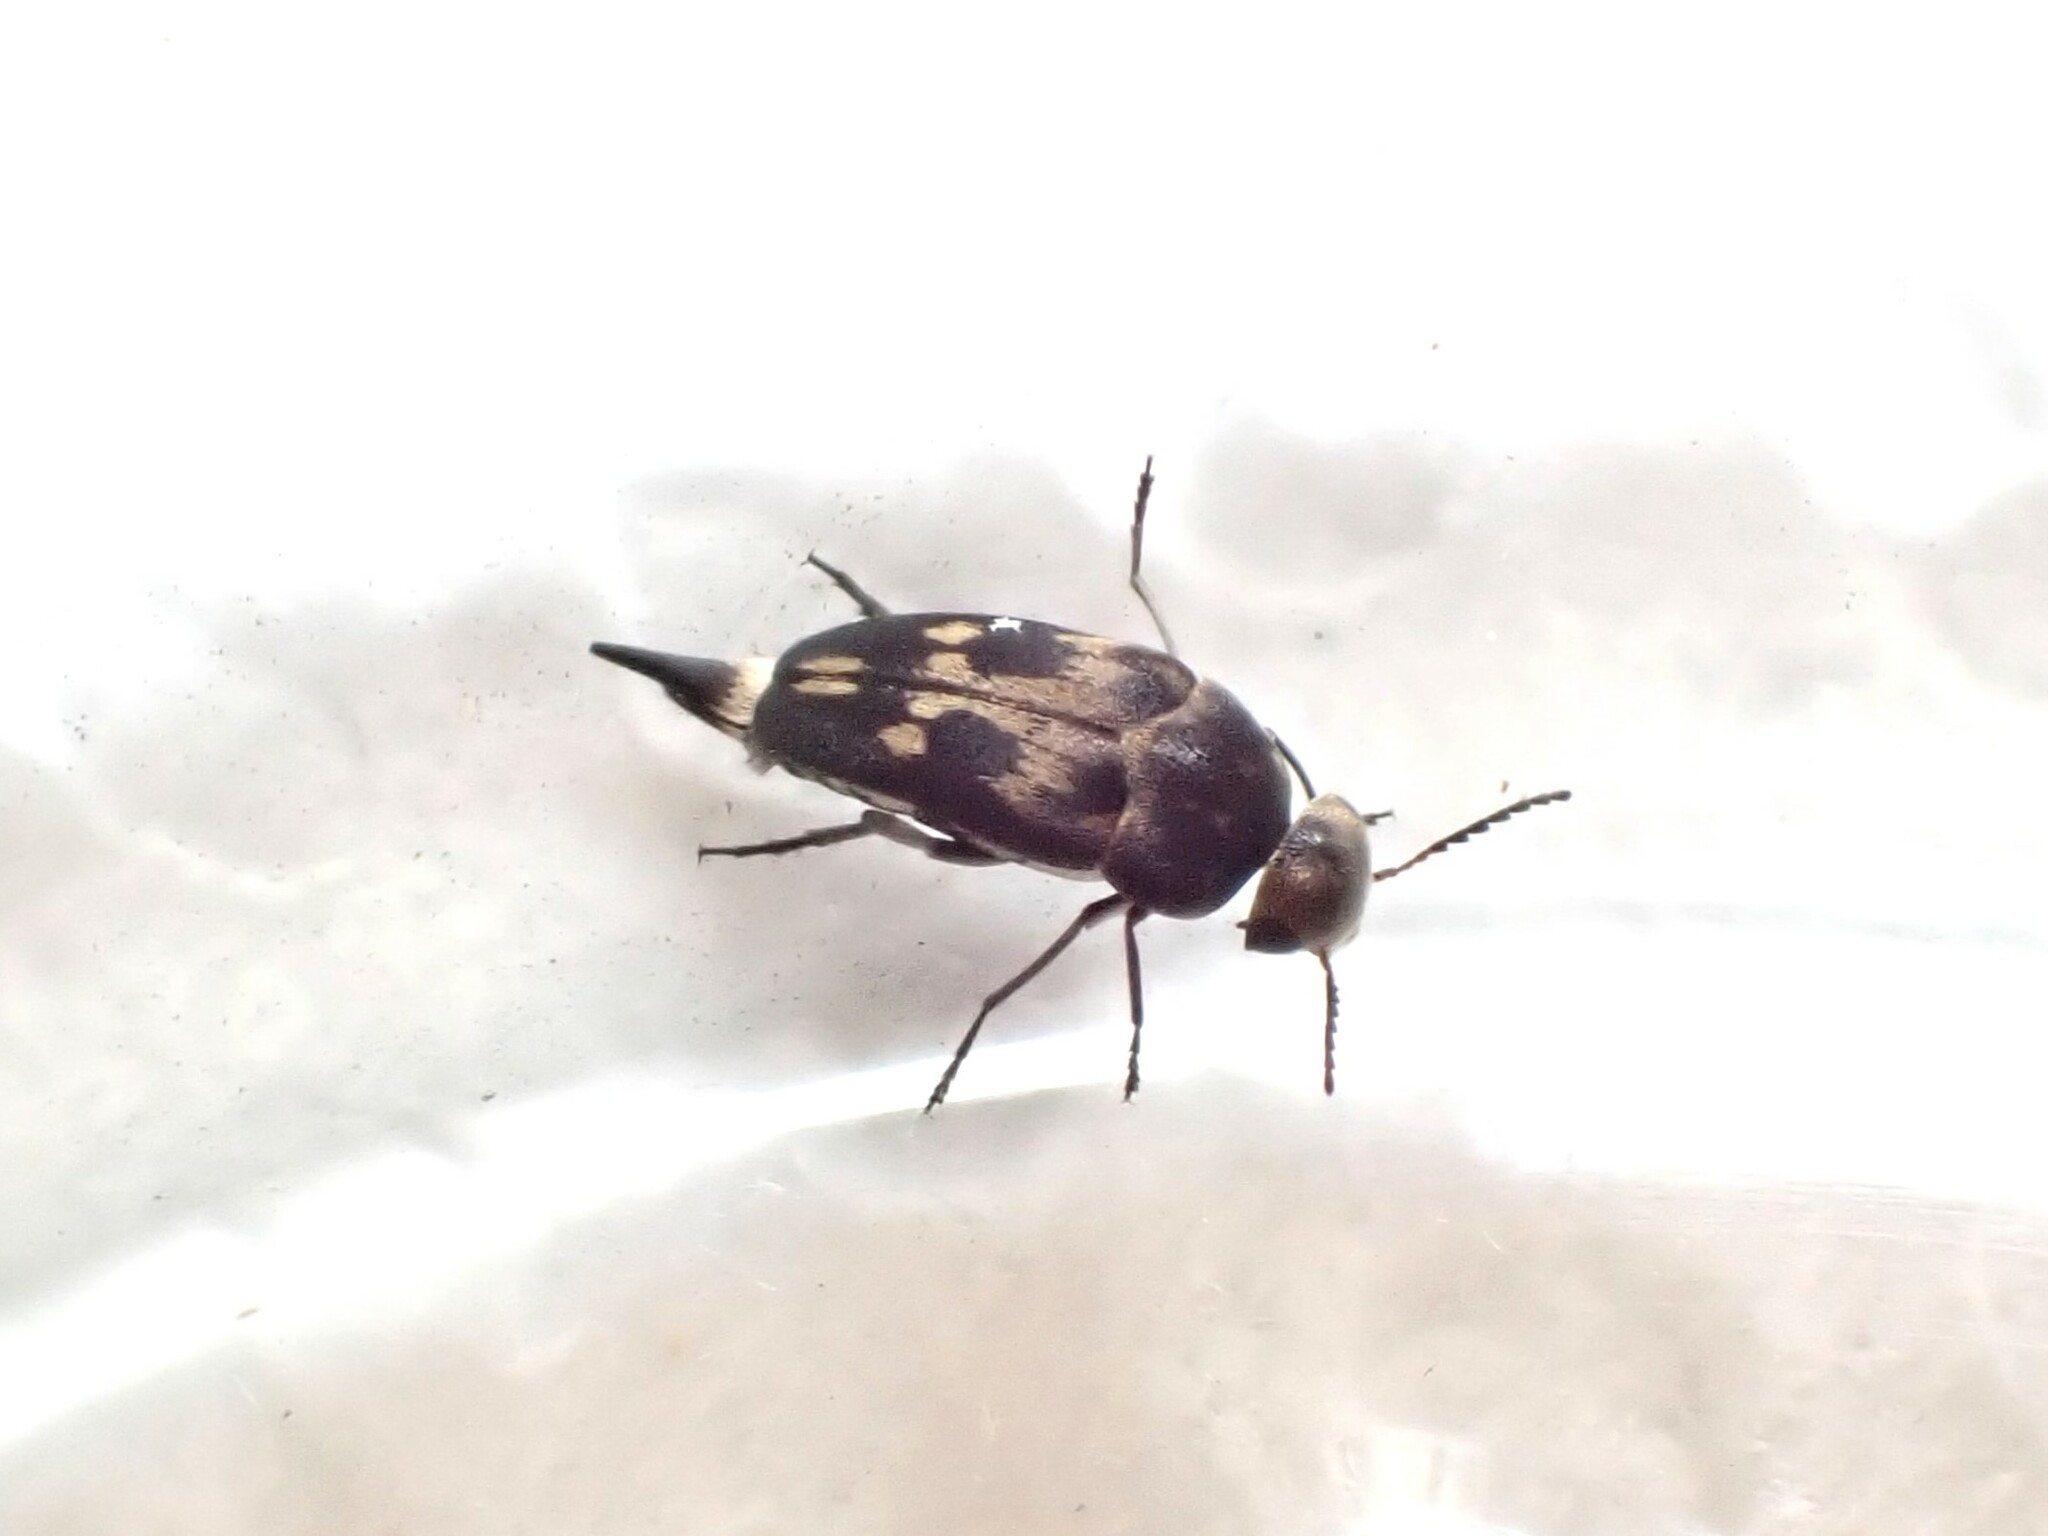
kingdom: Animalia
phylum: Arthropoda
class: Insecta
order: Coleoptera
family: Mordellidae
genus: Zeamordella
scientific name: Zeamordella monacha
